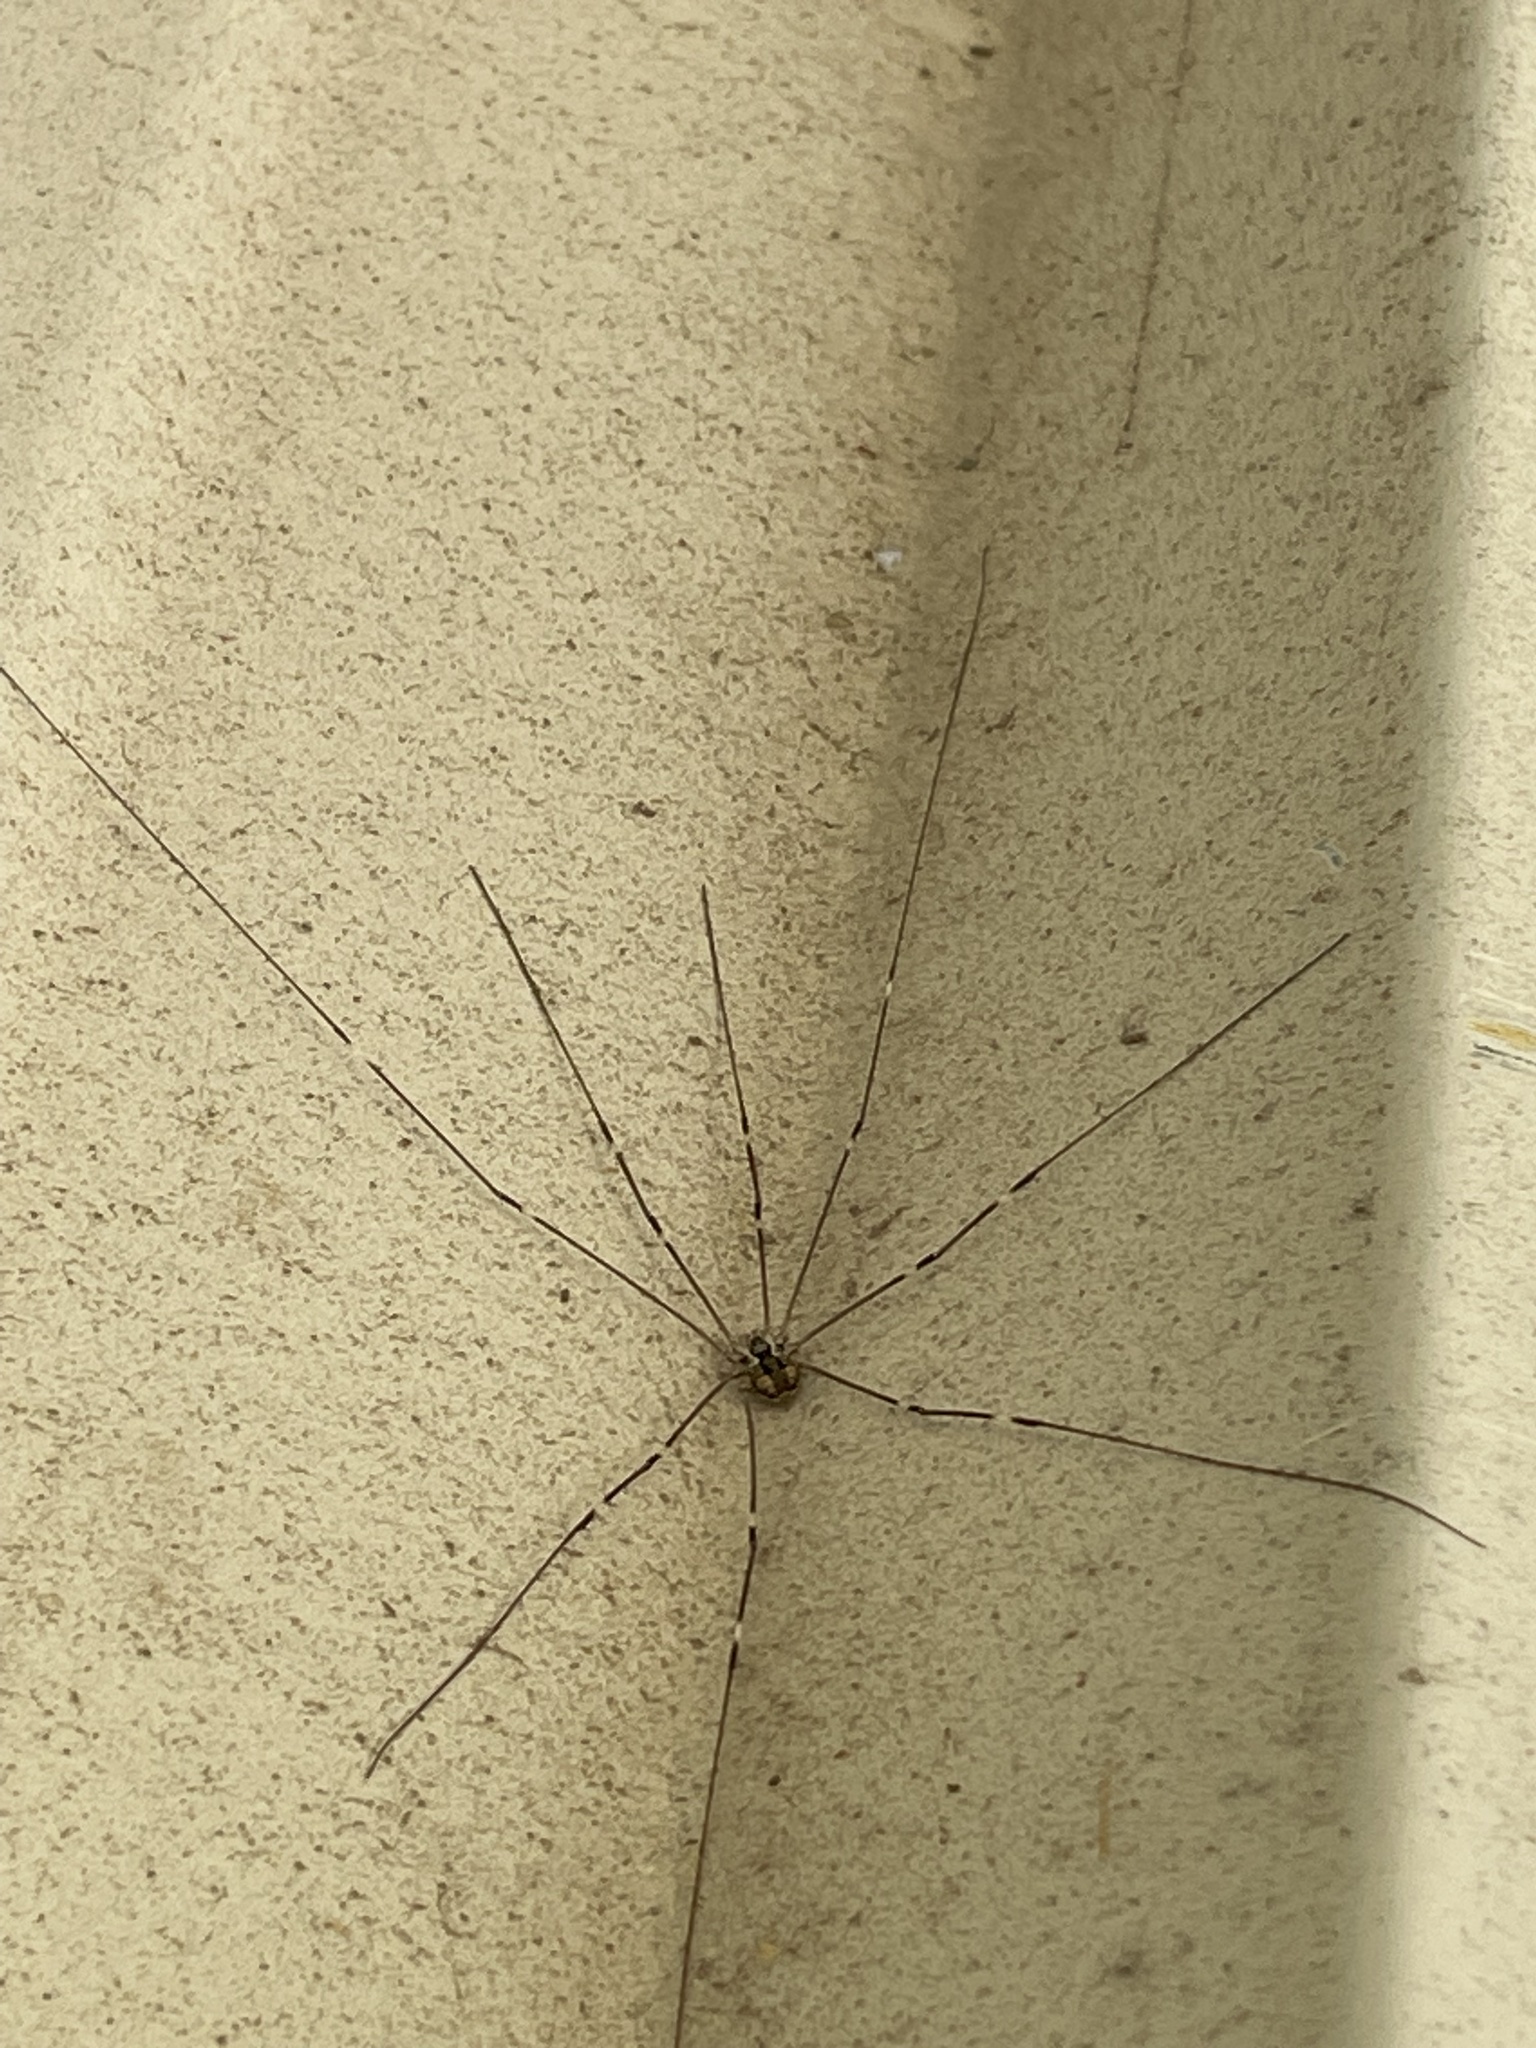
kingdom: Animalia
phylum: Arthropoda
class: Arachnida
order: Opiliones
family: Sclerosomatidae
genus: Leiobunum
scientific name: Leiobunum townsendi
